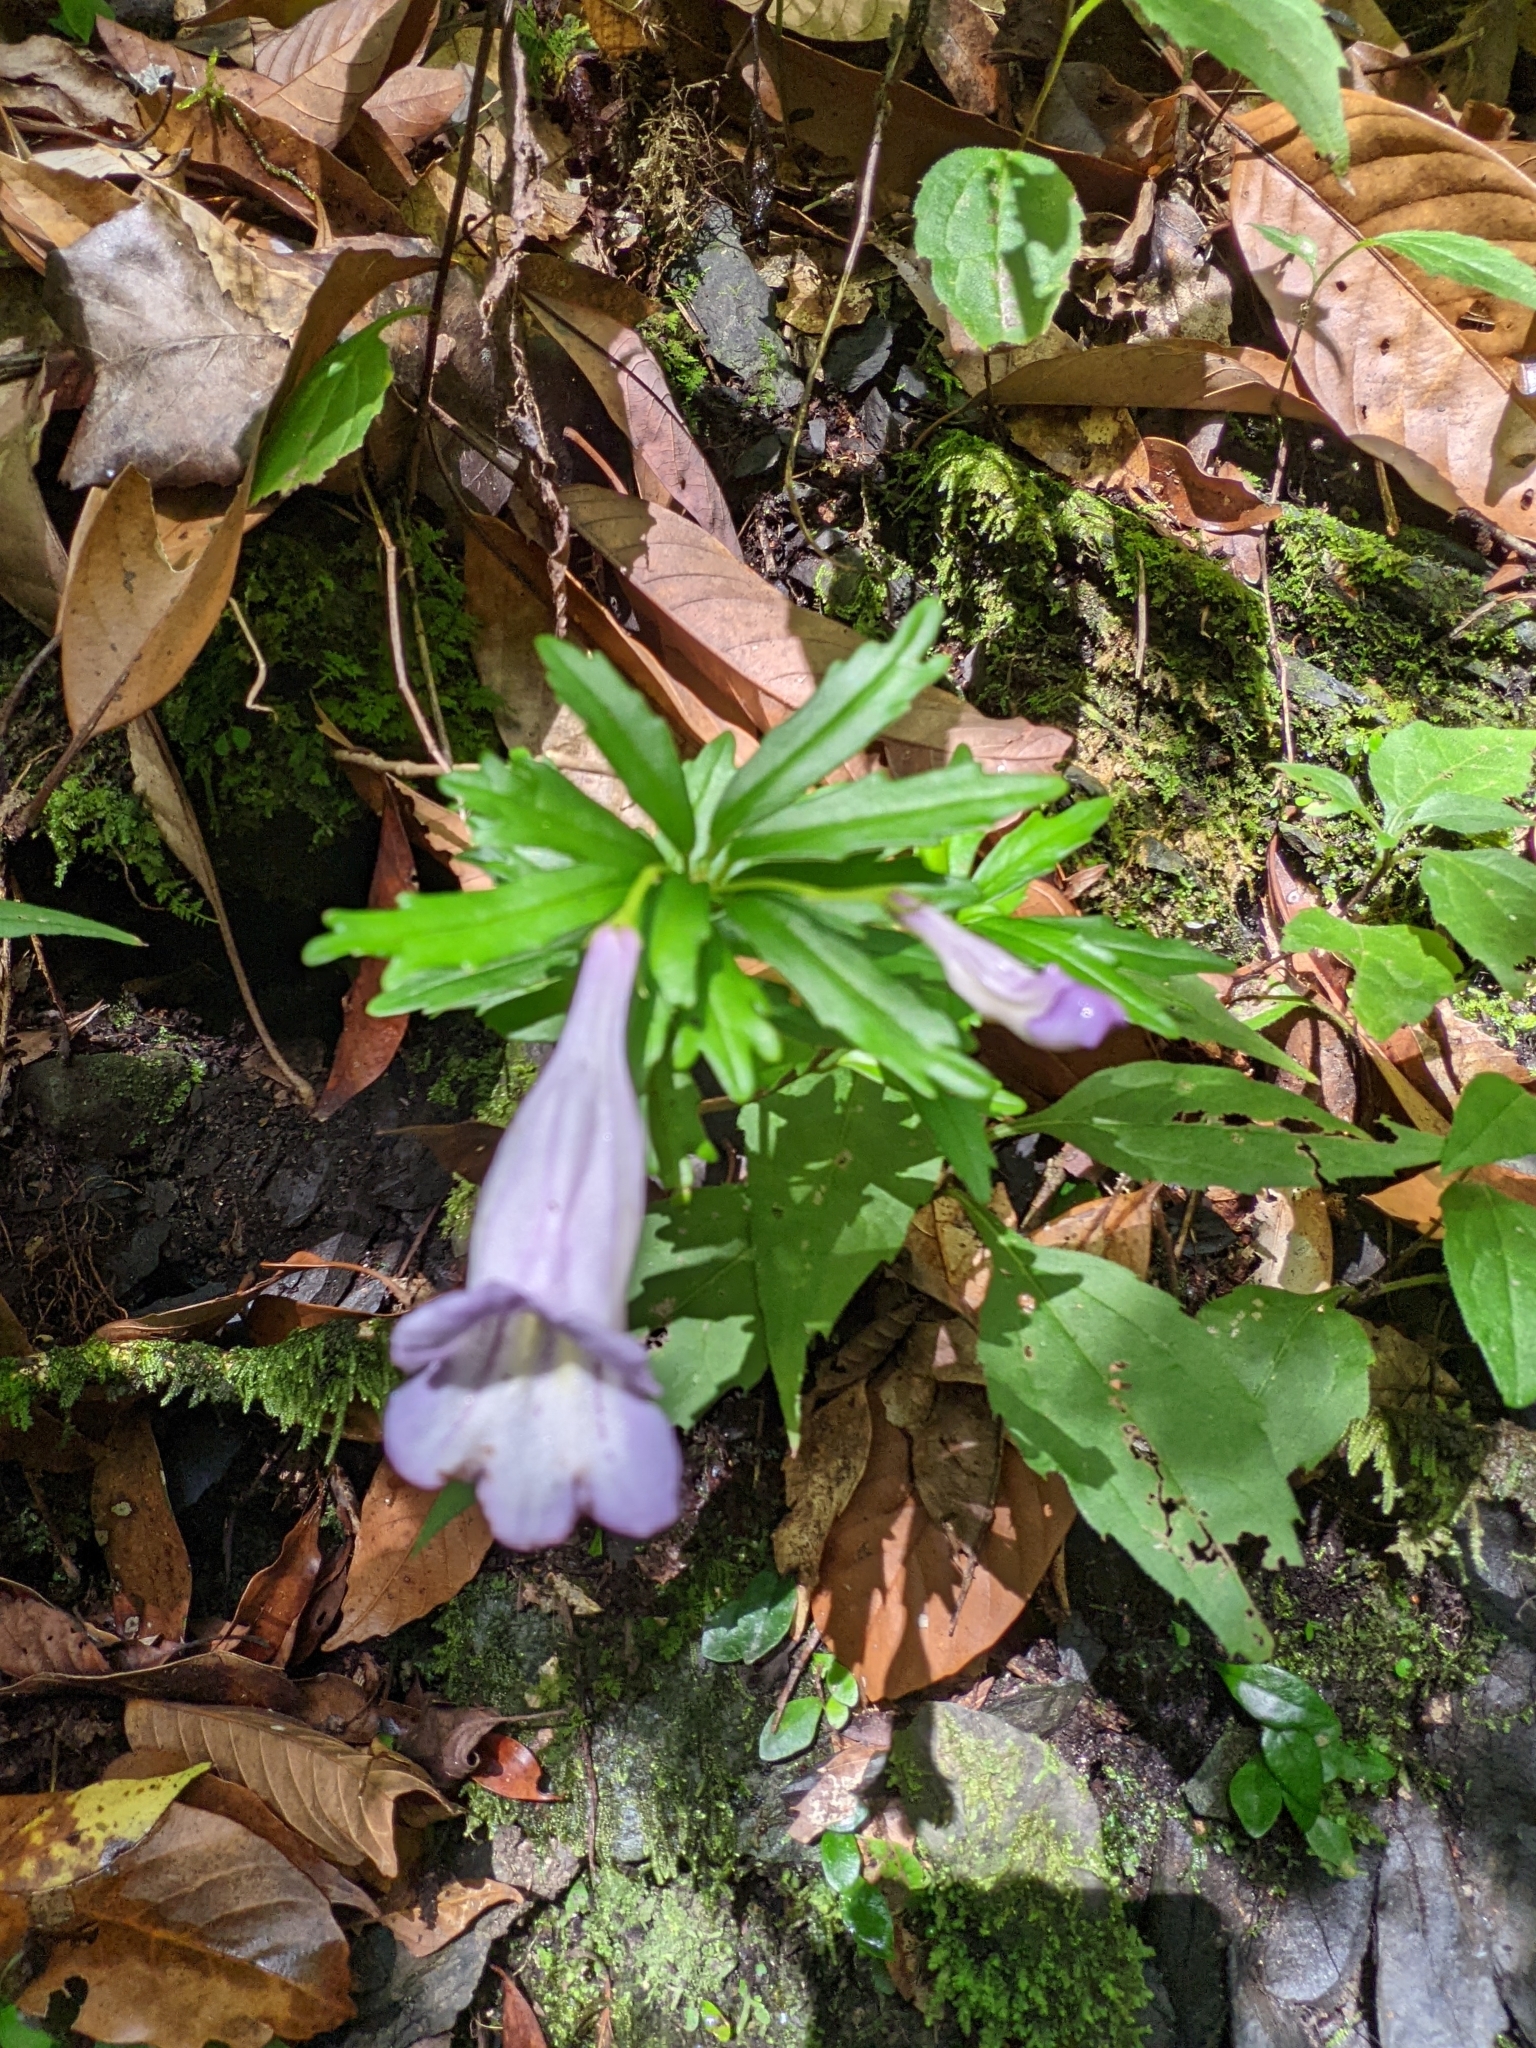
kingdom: Plantae
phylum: Tracheophyta
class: Magnoliopsida
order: Lamiales
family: Gesneriaceae
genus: Lysionotus
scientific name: Lysionotus pauciflorus
